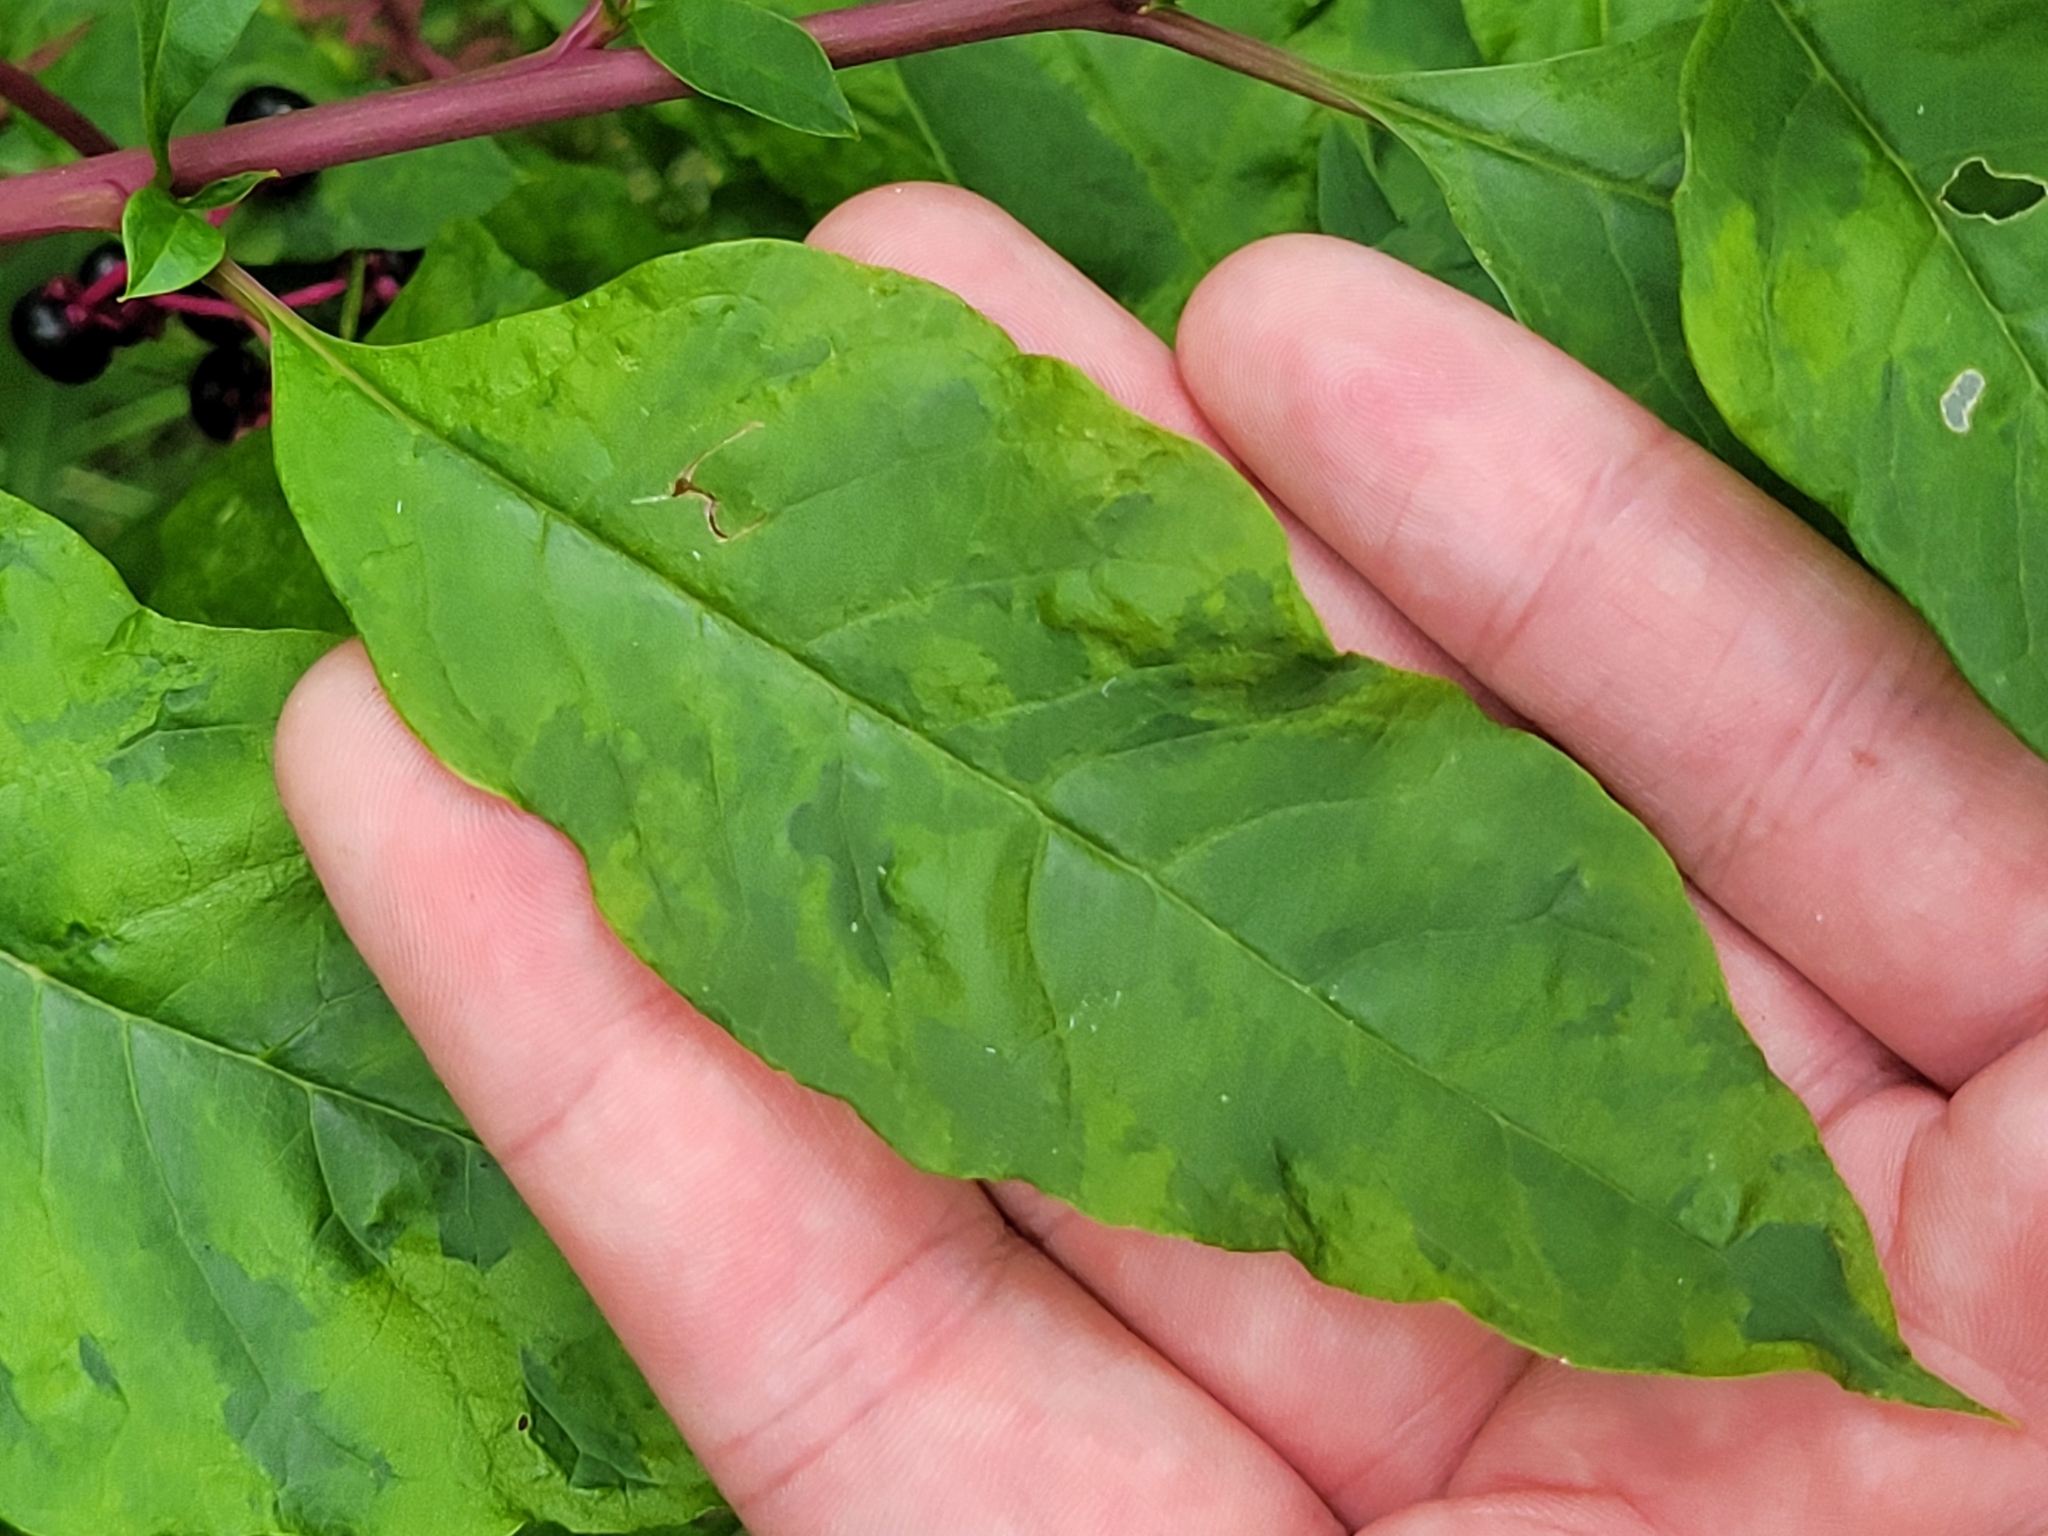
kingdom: Viruses
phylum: Pisuviricota
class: Stelpaviricetes
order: Patatavirales
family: Potyviridae
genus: Potyvirus
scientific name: Potyvirus Pokeweed mosaic virus
